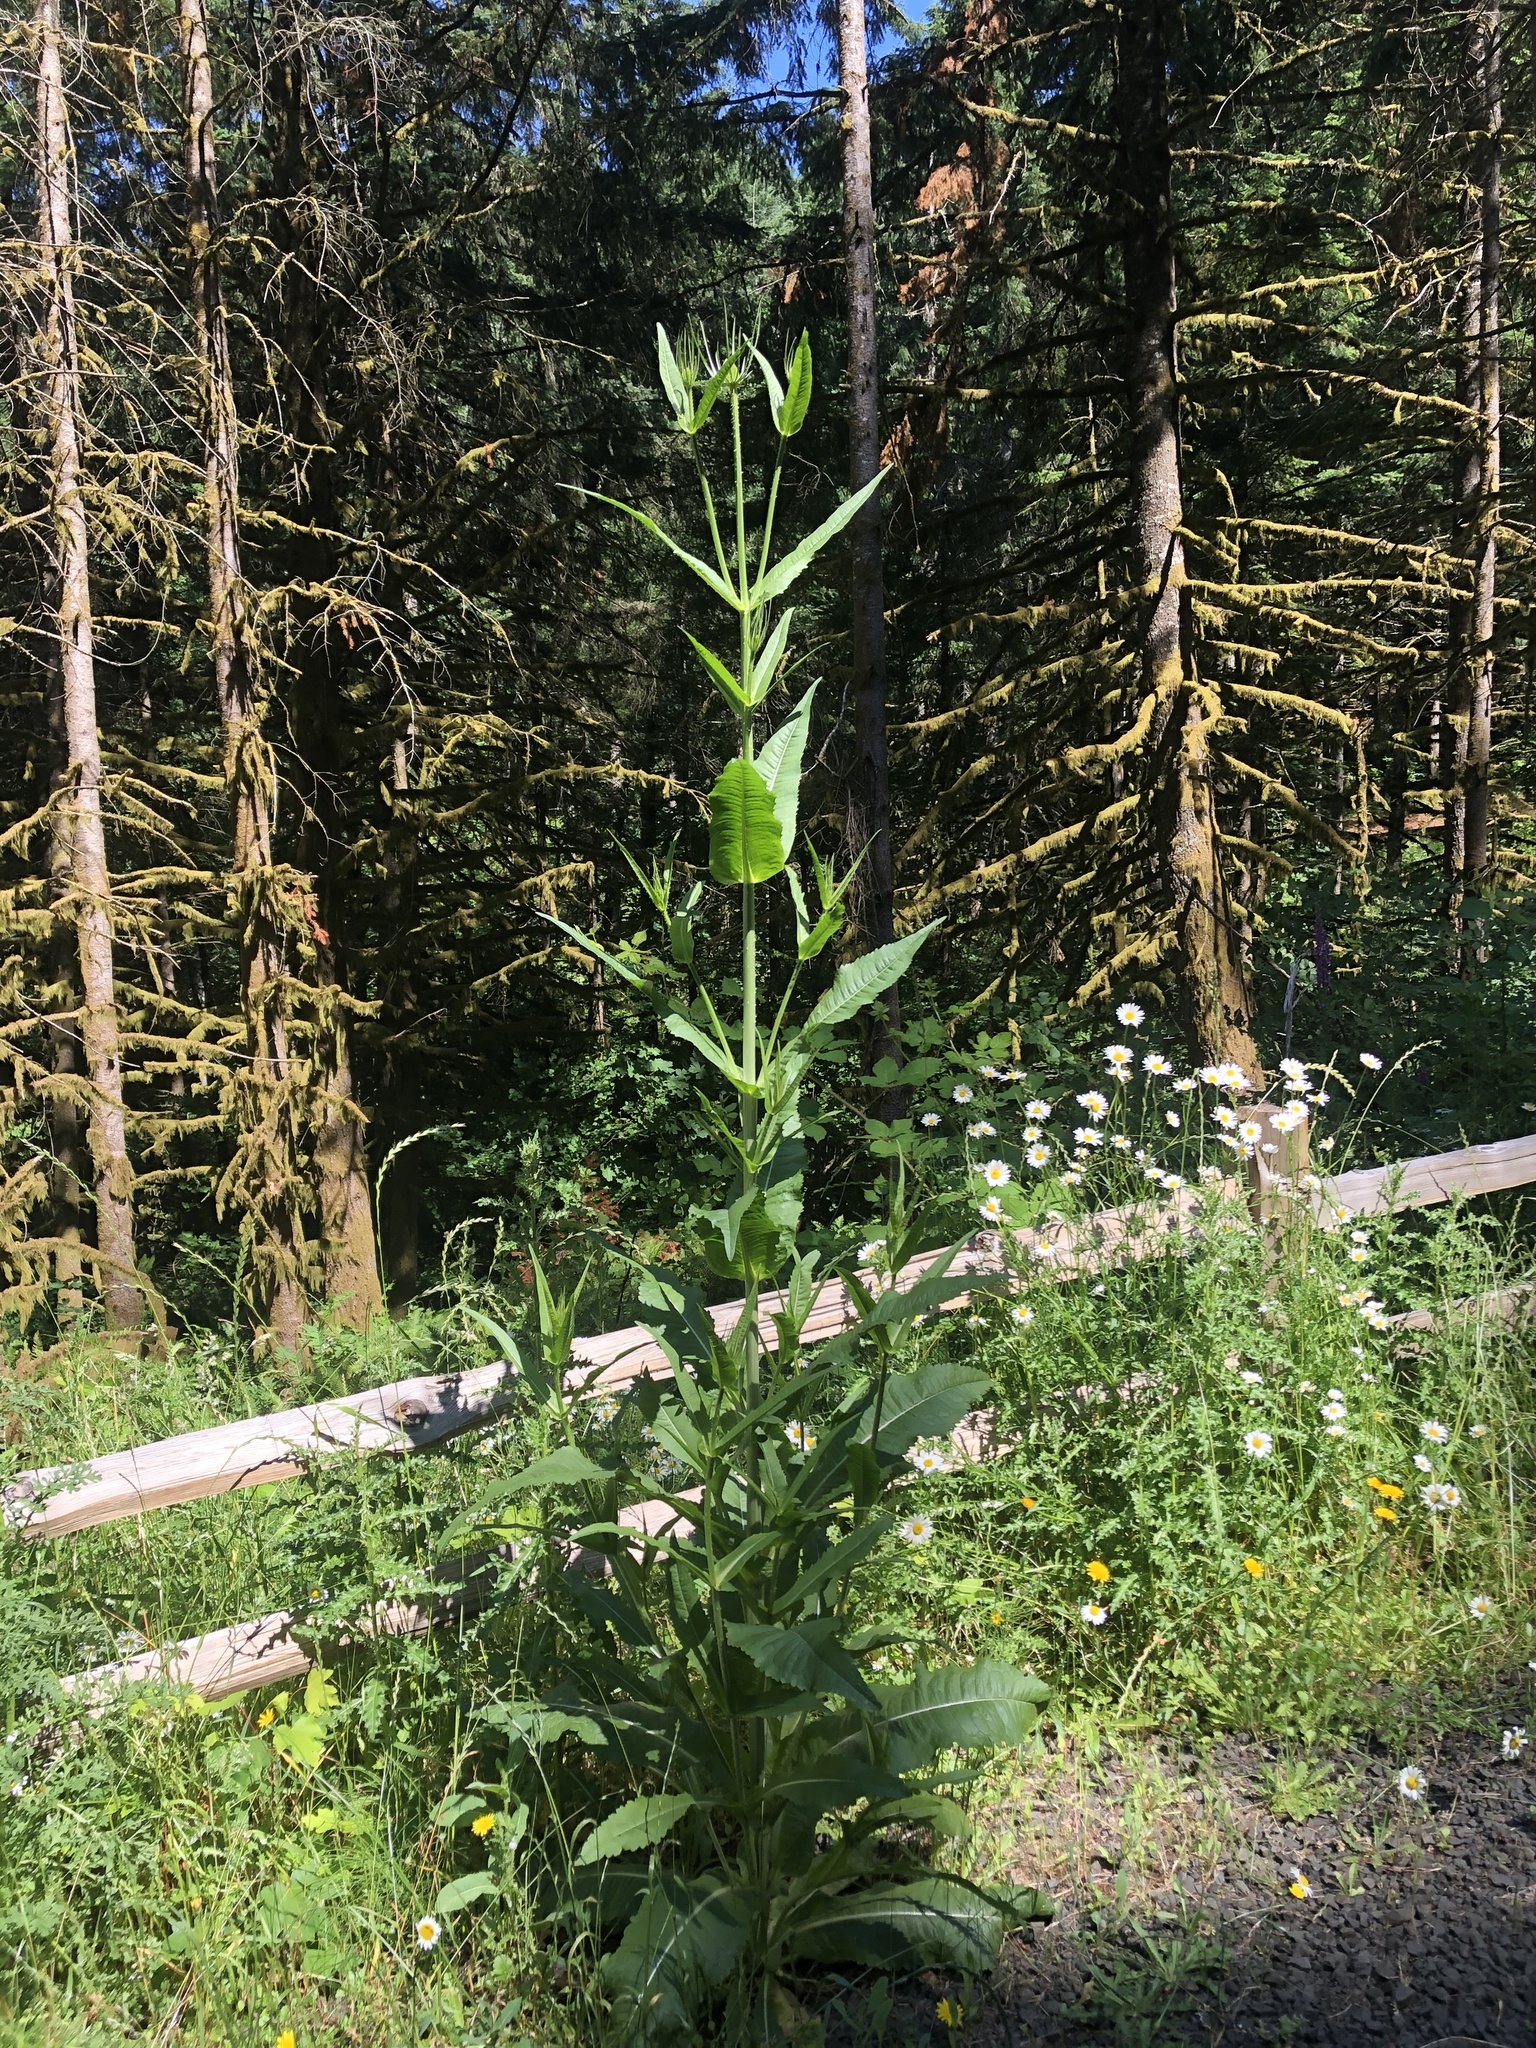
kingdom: Plantae
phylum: Tracheophyta
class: Magnoliopsida
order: Dipsacales
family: Caprifoliaceae
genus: Dipsacus
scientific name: Dipsacus fullonum
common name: Teasel
